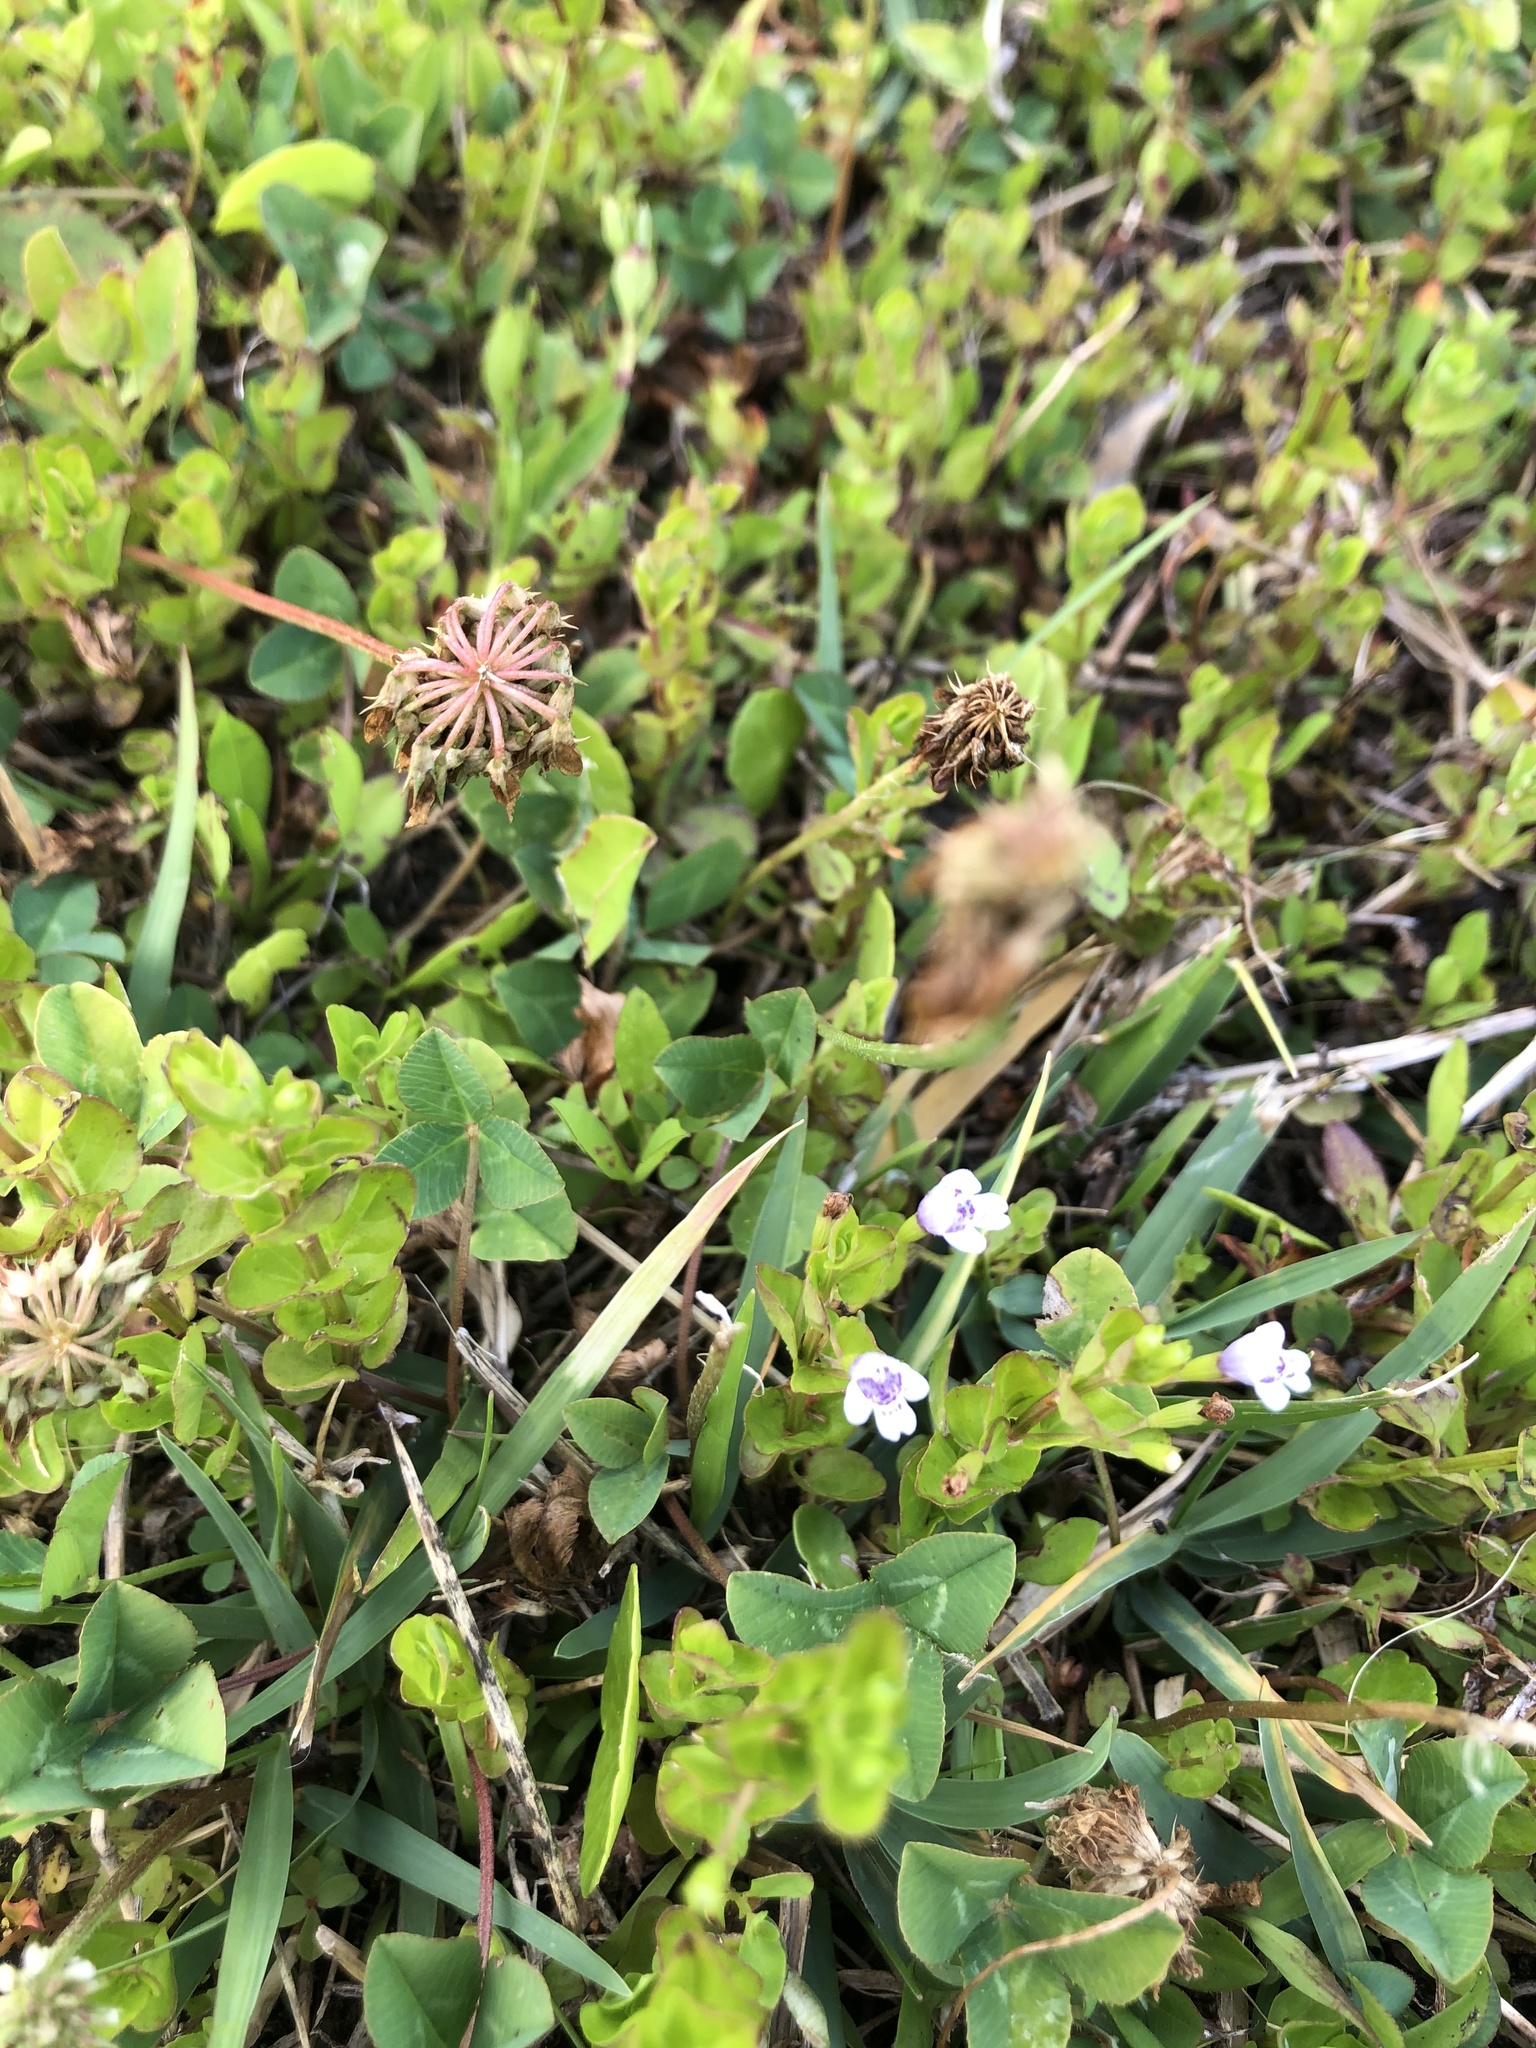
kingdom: Plantae
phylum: Tracheophyta
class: Magnoliopsida
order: Lamiales
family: Lamiaceae
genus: Clinopodium
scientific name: Clinopodium brownei
